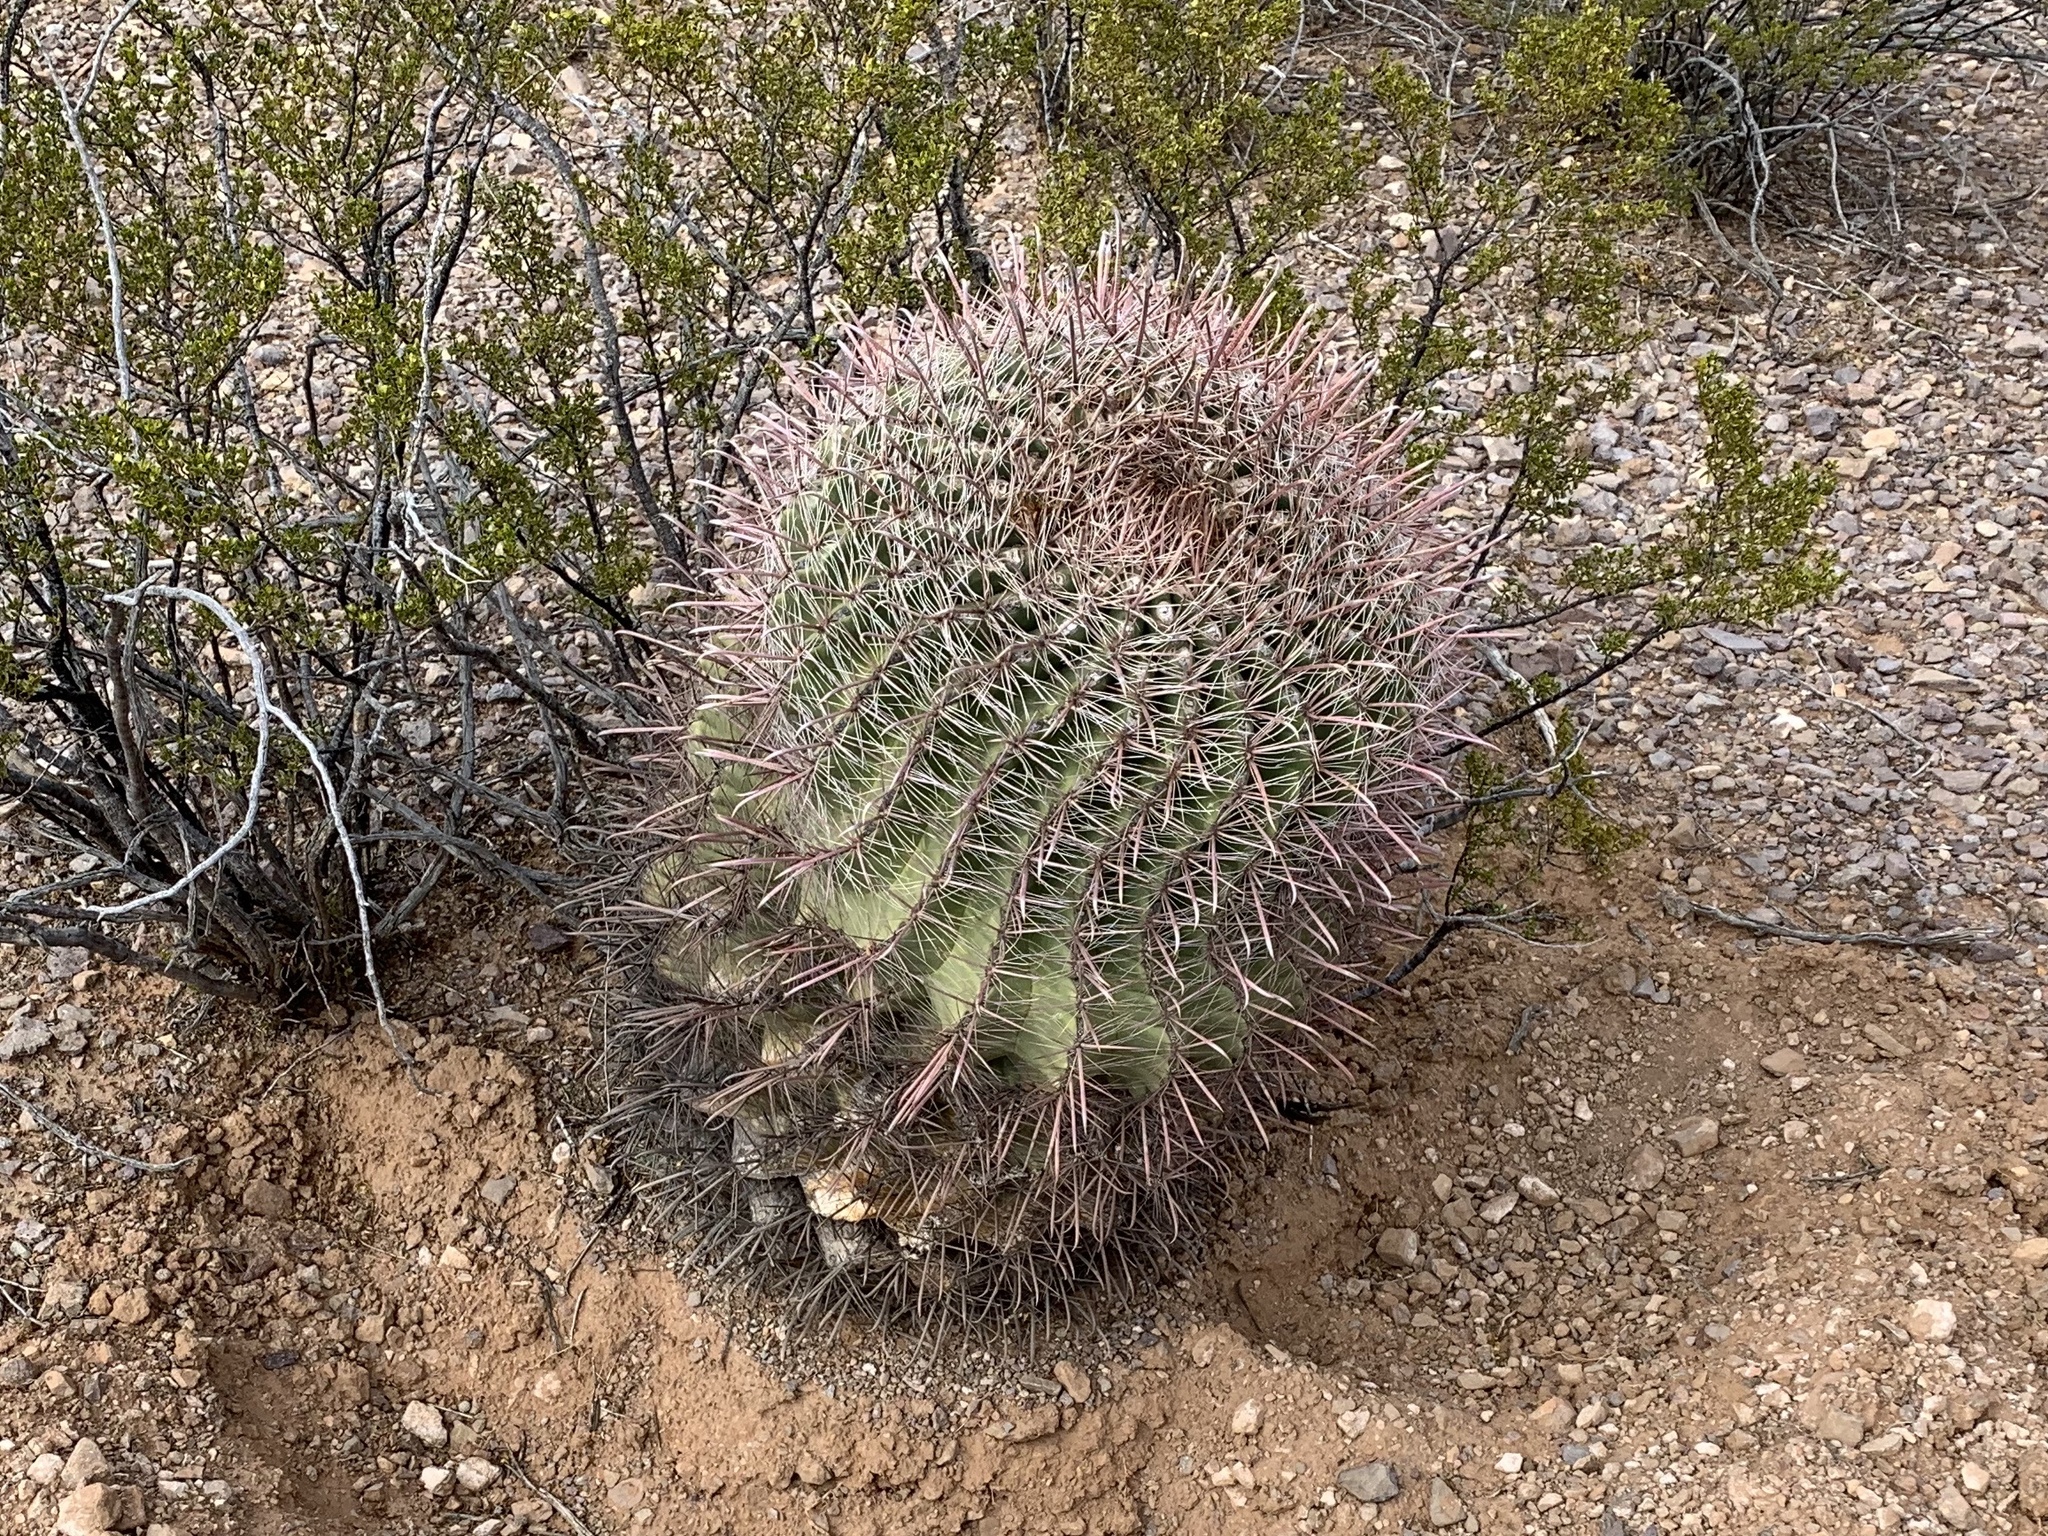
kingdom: Plantae
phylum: Tracheophyta
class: Magnoliopsida
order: Caryophyllales
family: Cactaceae
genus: Ferocactus
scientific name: Ferocactus wislizeni
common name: Candy barrel cactus
